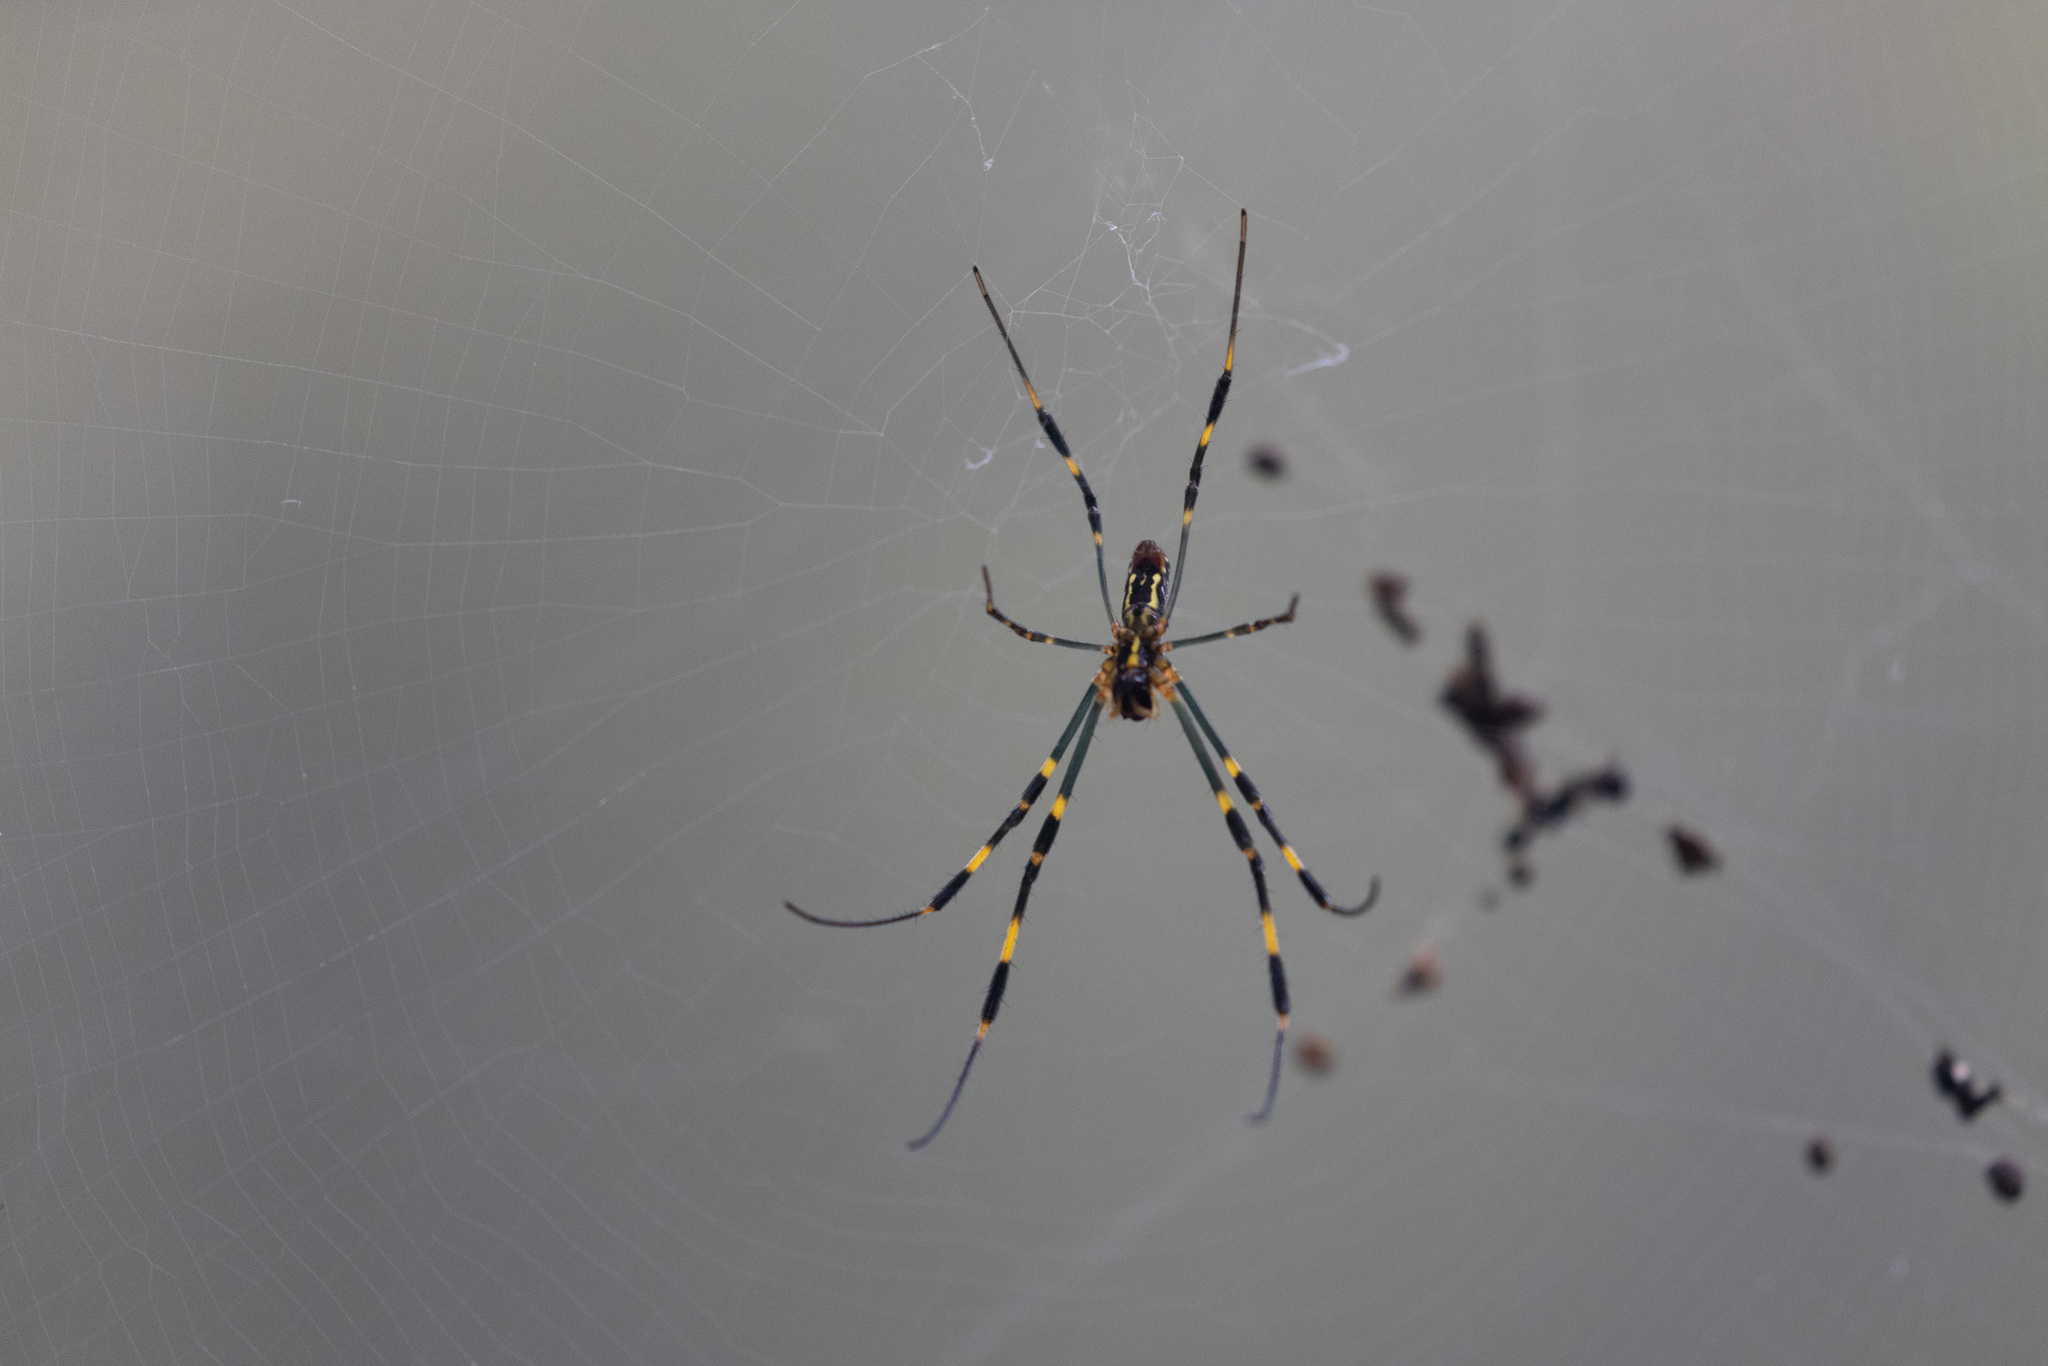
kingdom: Animalia
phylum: Arthropoda
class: Arachnida
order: Araneae
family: Araneidae
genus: Trichonephila
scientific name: Trichonephila clavata
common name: Jorō spider
